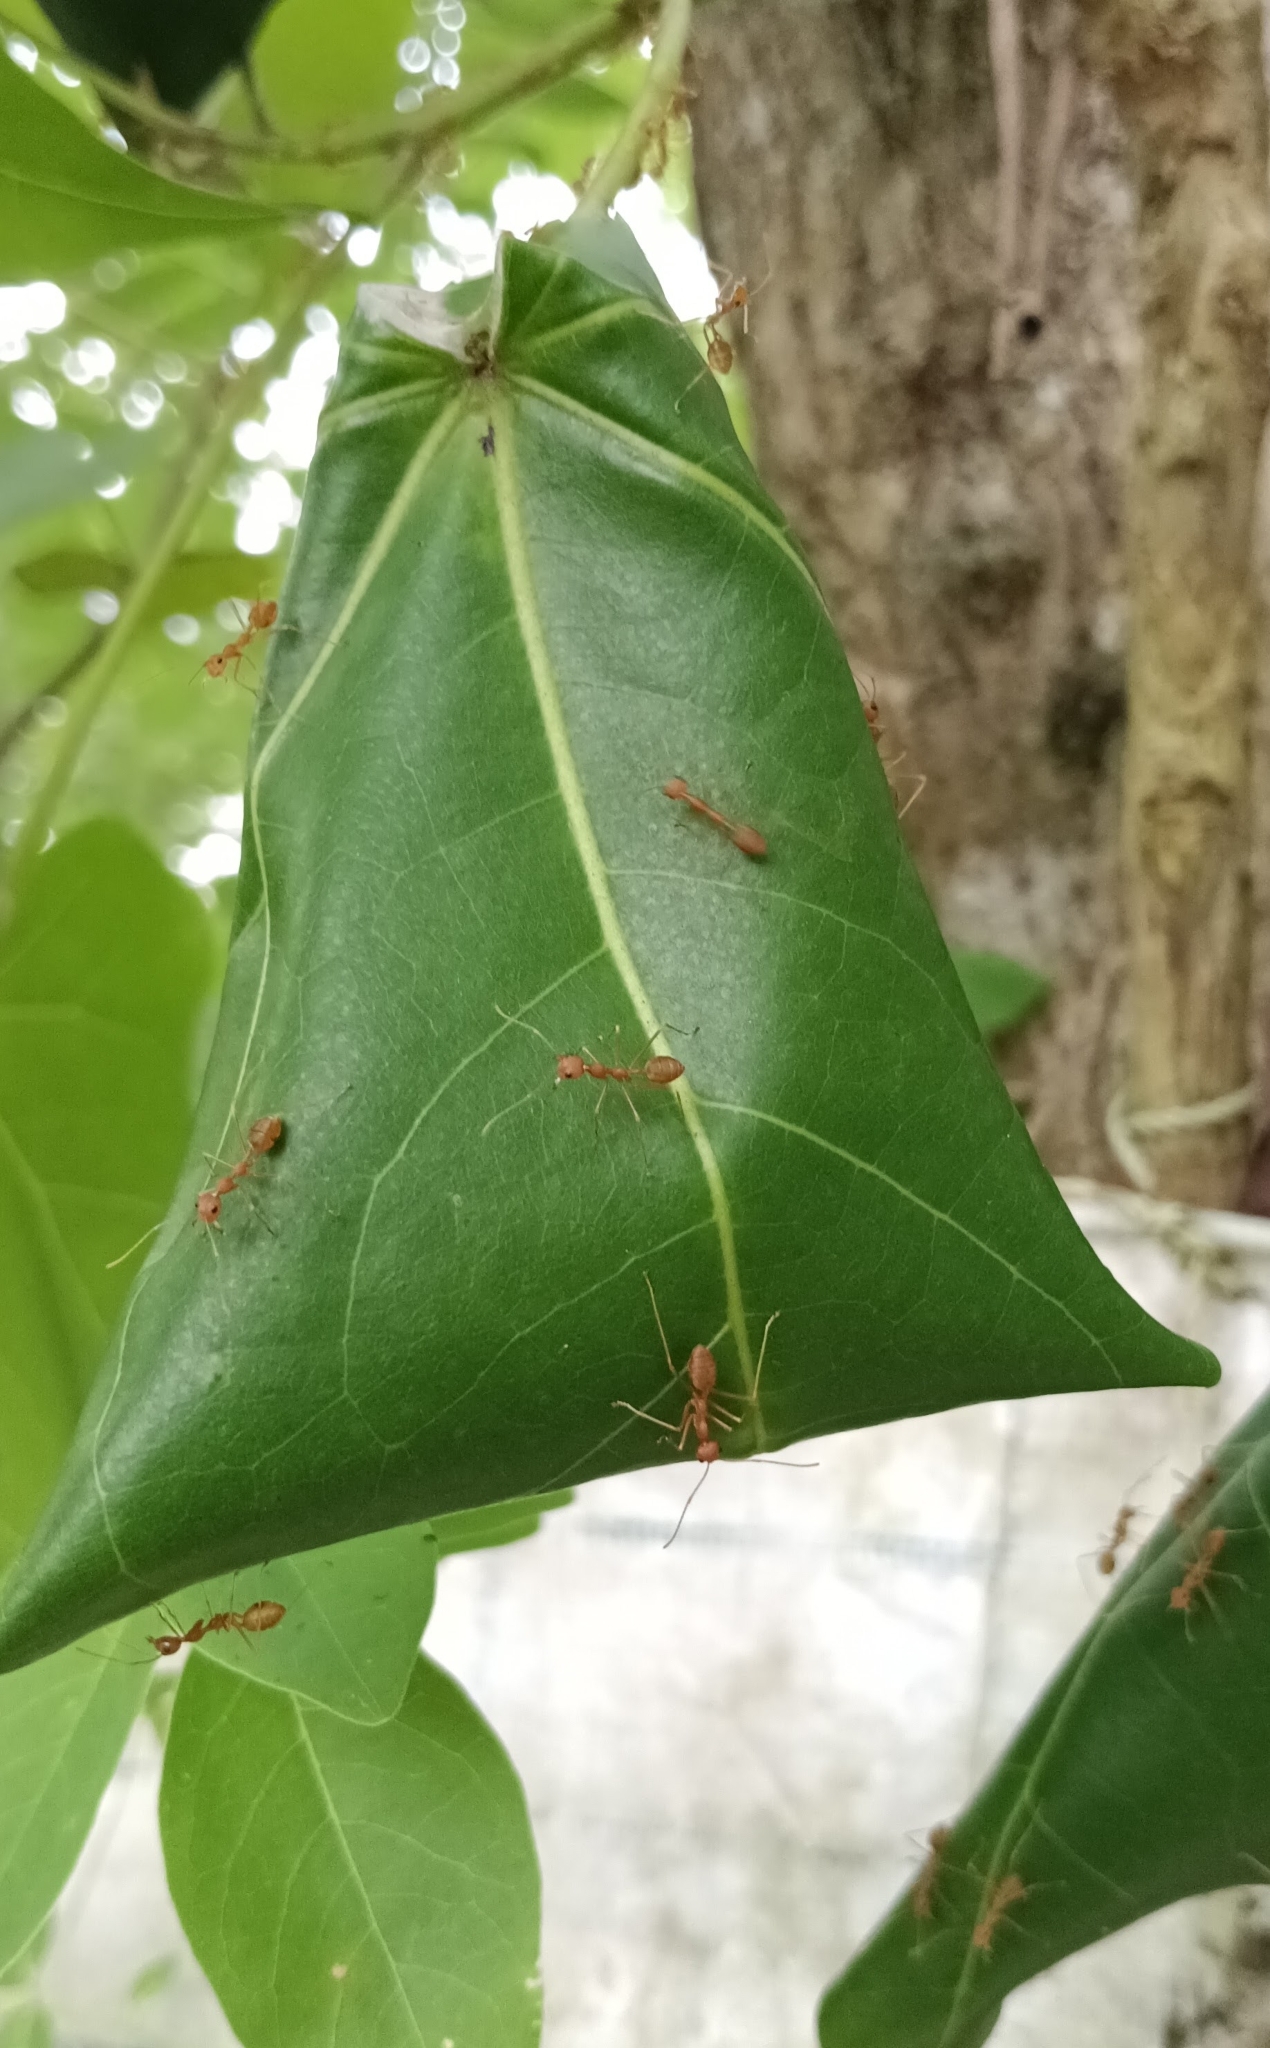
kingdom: Animalia
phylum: Arthropoda
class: Insecta
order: Hymenoptera
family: Formicidae
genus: Oecophylla
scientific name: Oecophylla smaragdina
